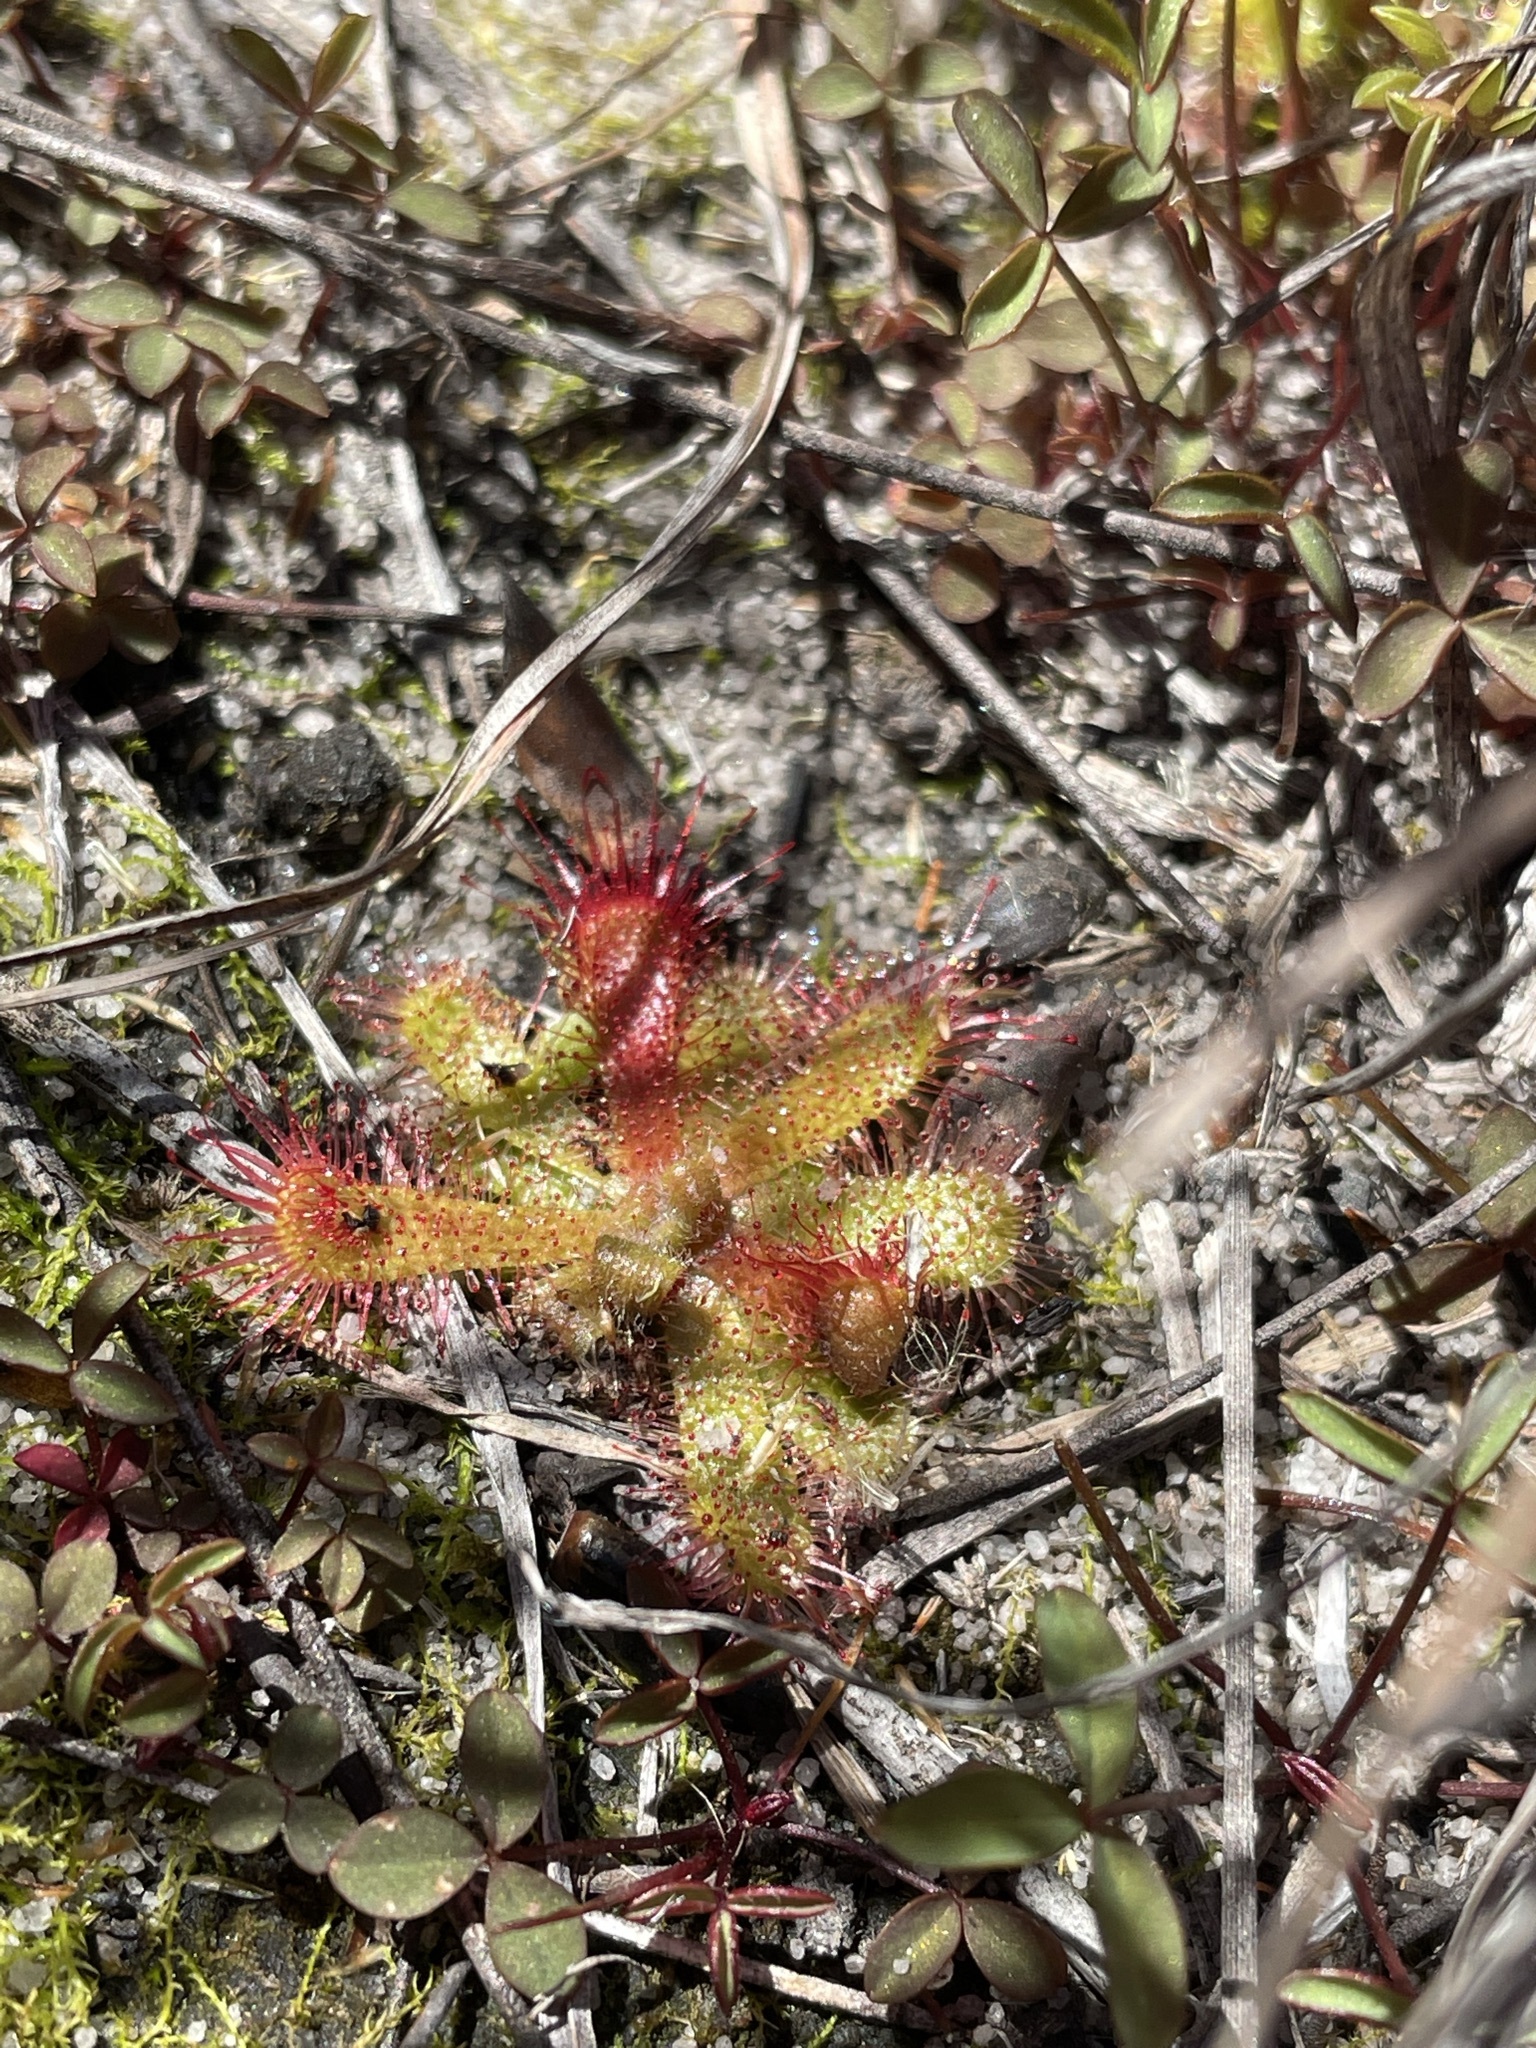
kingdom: Plantae
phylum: Tracheophyta
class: Magnoliopsida
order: Caryophyllales
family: Droseraceae
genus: Drosera
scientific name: Drosera trinervia
